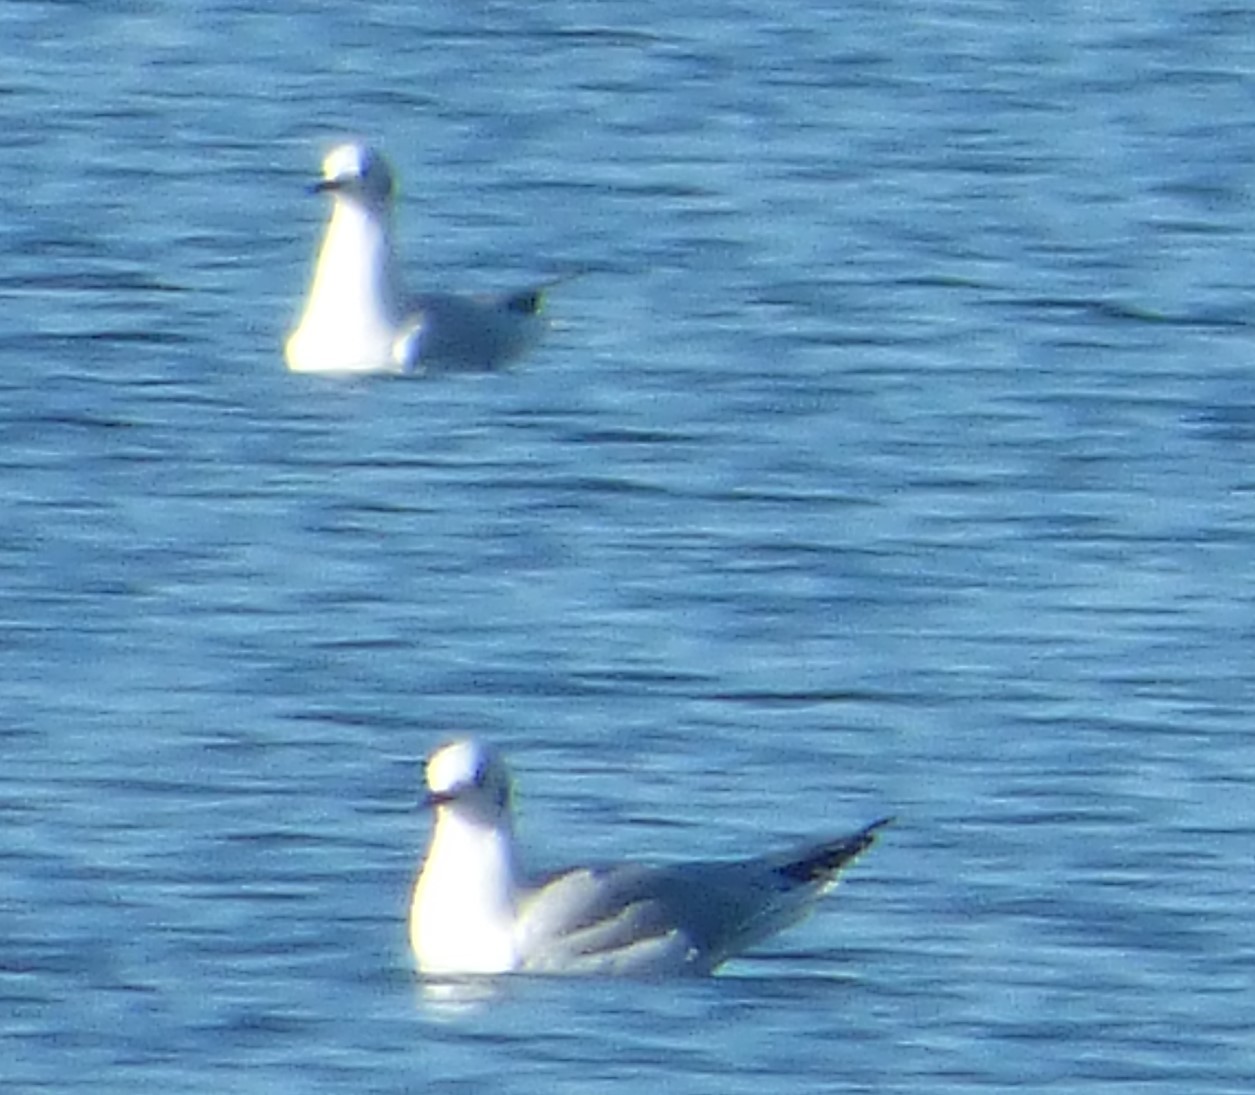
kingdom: Animalia
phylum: Chordata
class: Aves
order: Charadriiformes
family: Laridae
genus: Chroicocephalus
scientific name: Chroicocephalus philadelphia
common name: Bonaparte's gull
